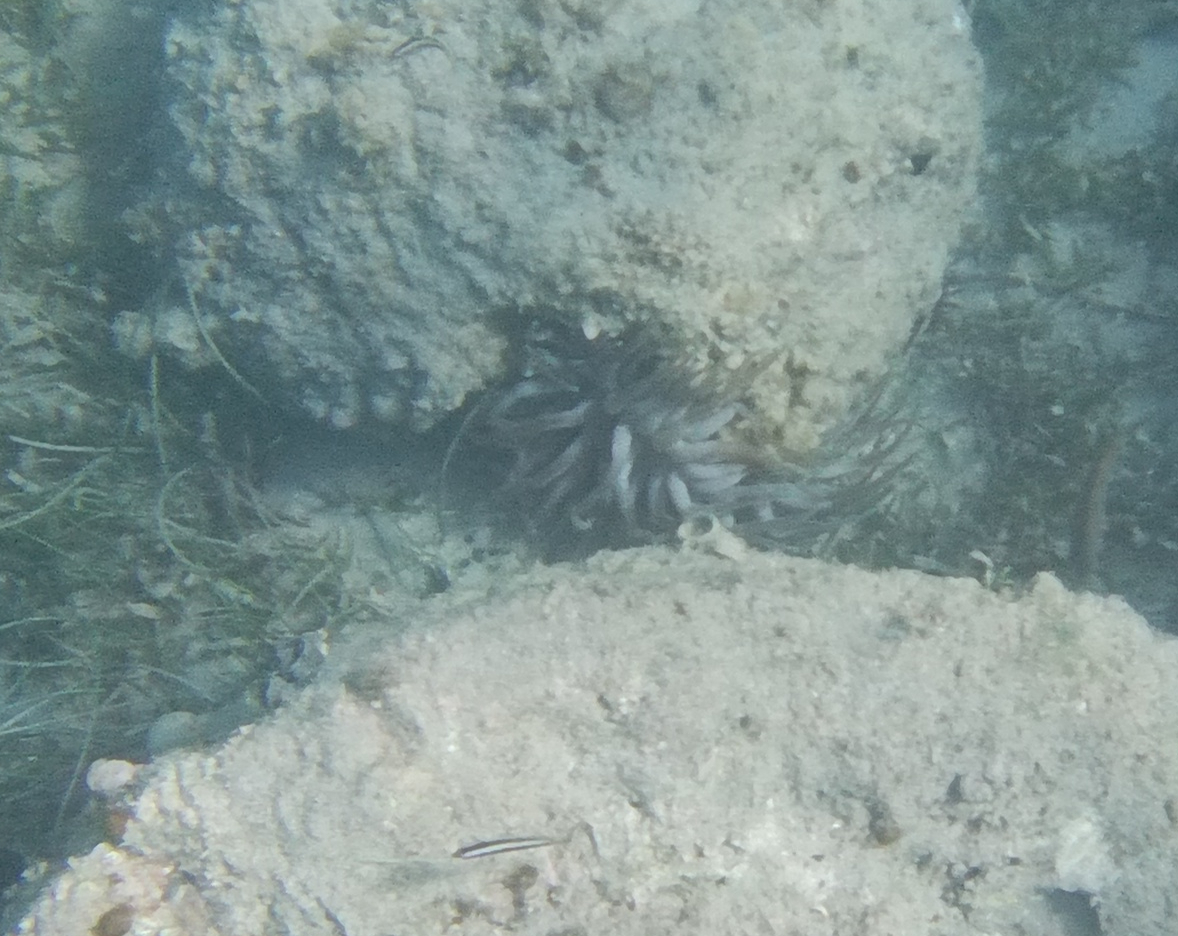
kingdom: Animalia
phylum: Cnidaria
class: Anthozoa
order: Actiniaria
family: Actiniidae
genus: Condylactis
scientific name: Condylactis gigantea
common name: Giant caribbean anemone
